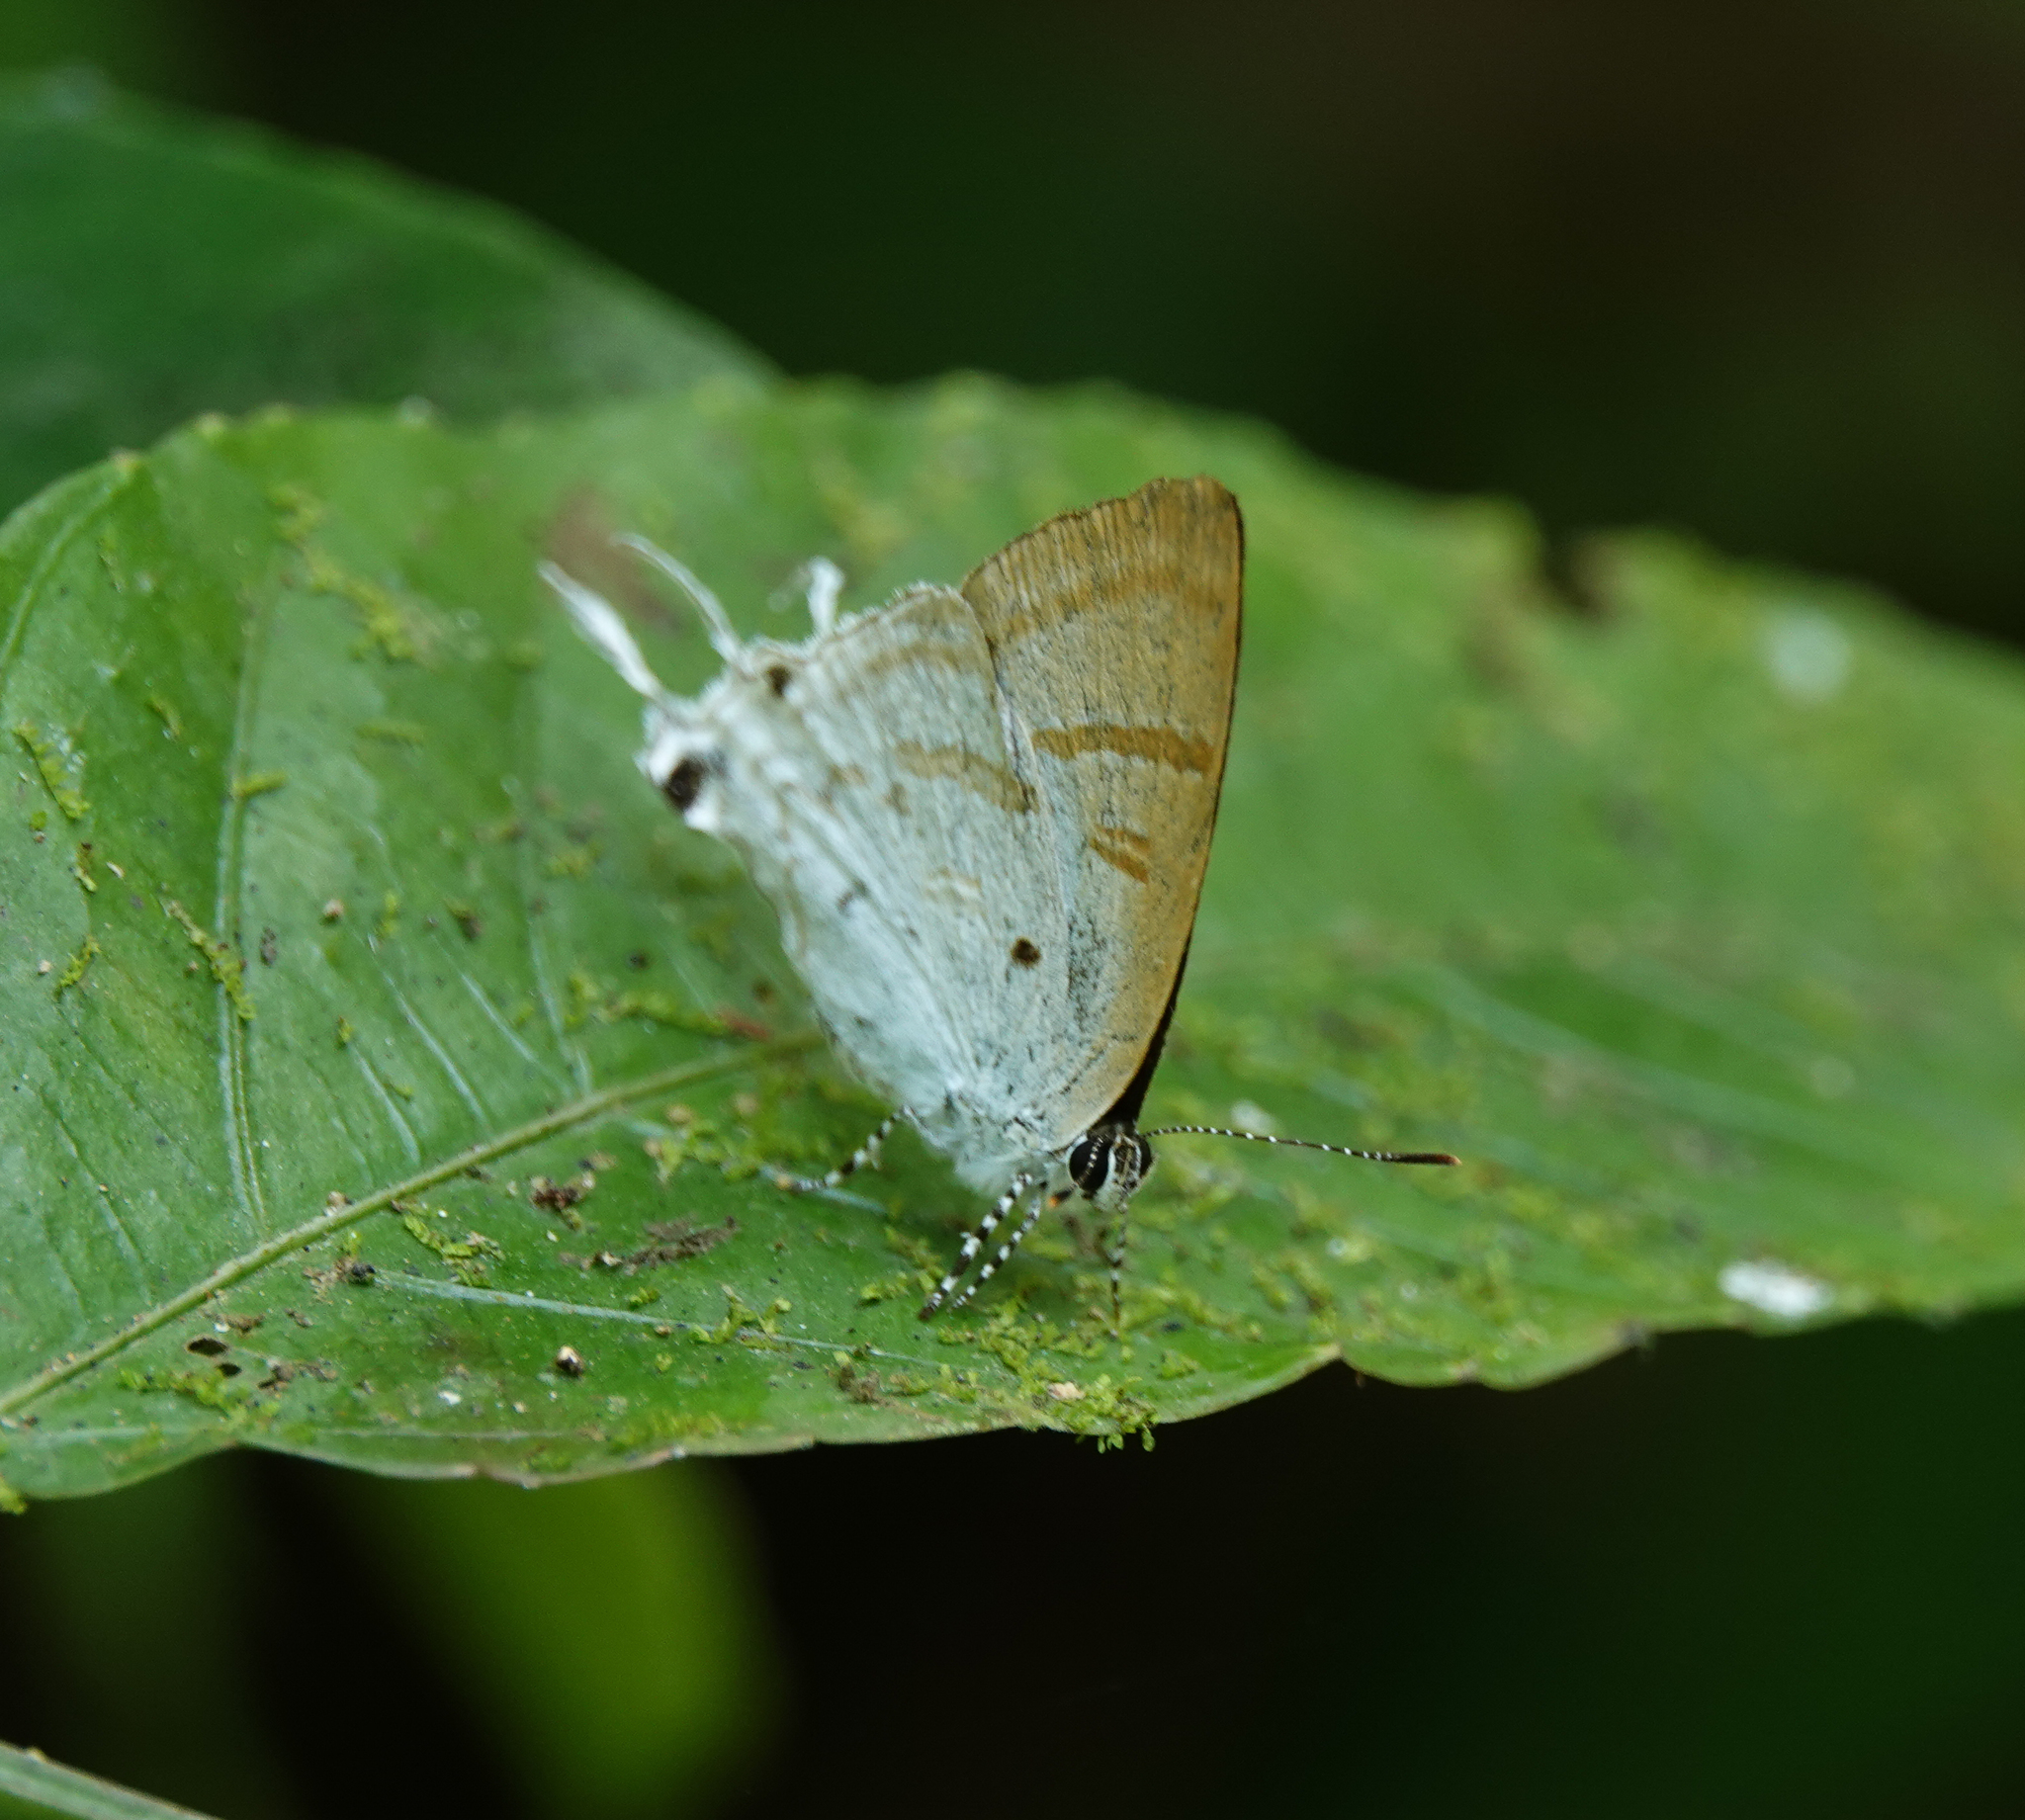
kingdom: Animalia
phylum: Arthropoda
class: Insecta
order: Lepidoptera
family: Lycaenidae
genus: Zeltus
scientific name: Zeltus amasa
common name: Fluffy tit
